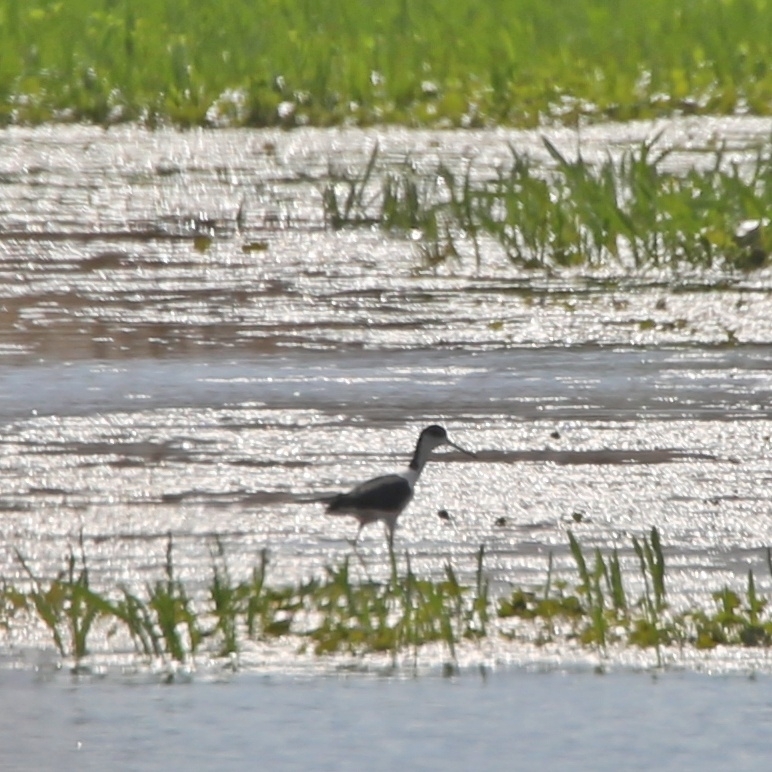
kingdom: Animalia
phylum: Chordata
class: Aves
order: Charadriiformes
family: Recurvirostridae
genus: Himantopus
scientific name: Himantopus himantopus
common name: Black-winged stilt
